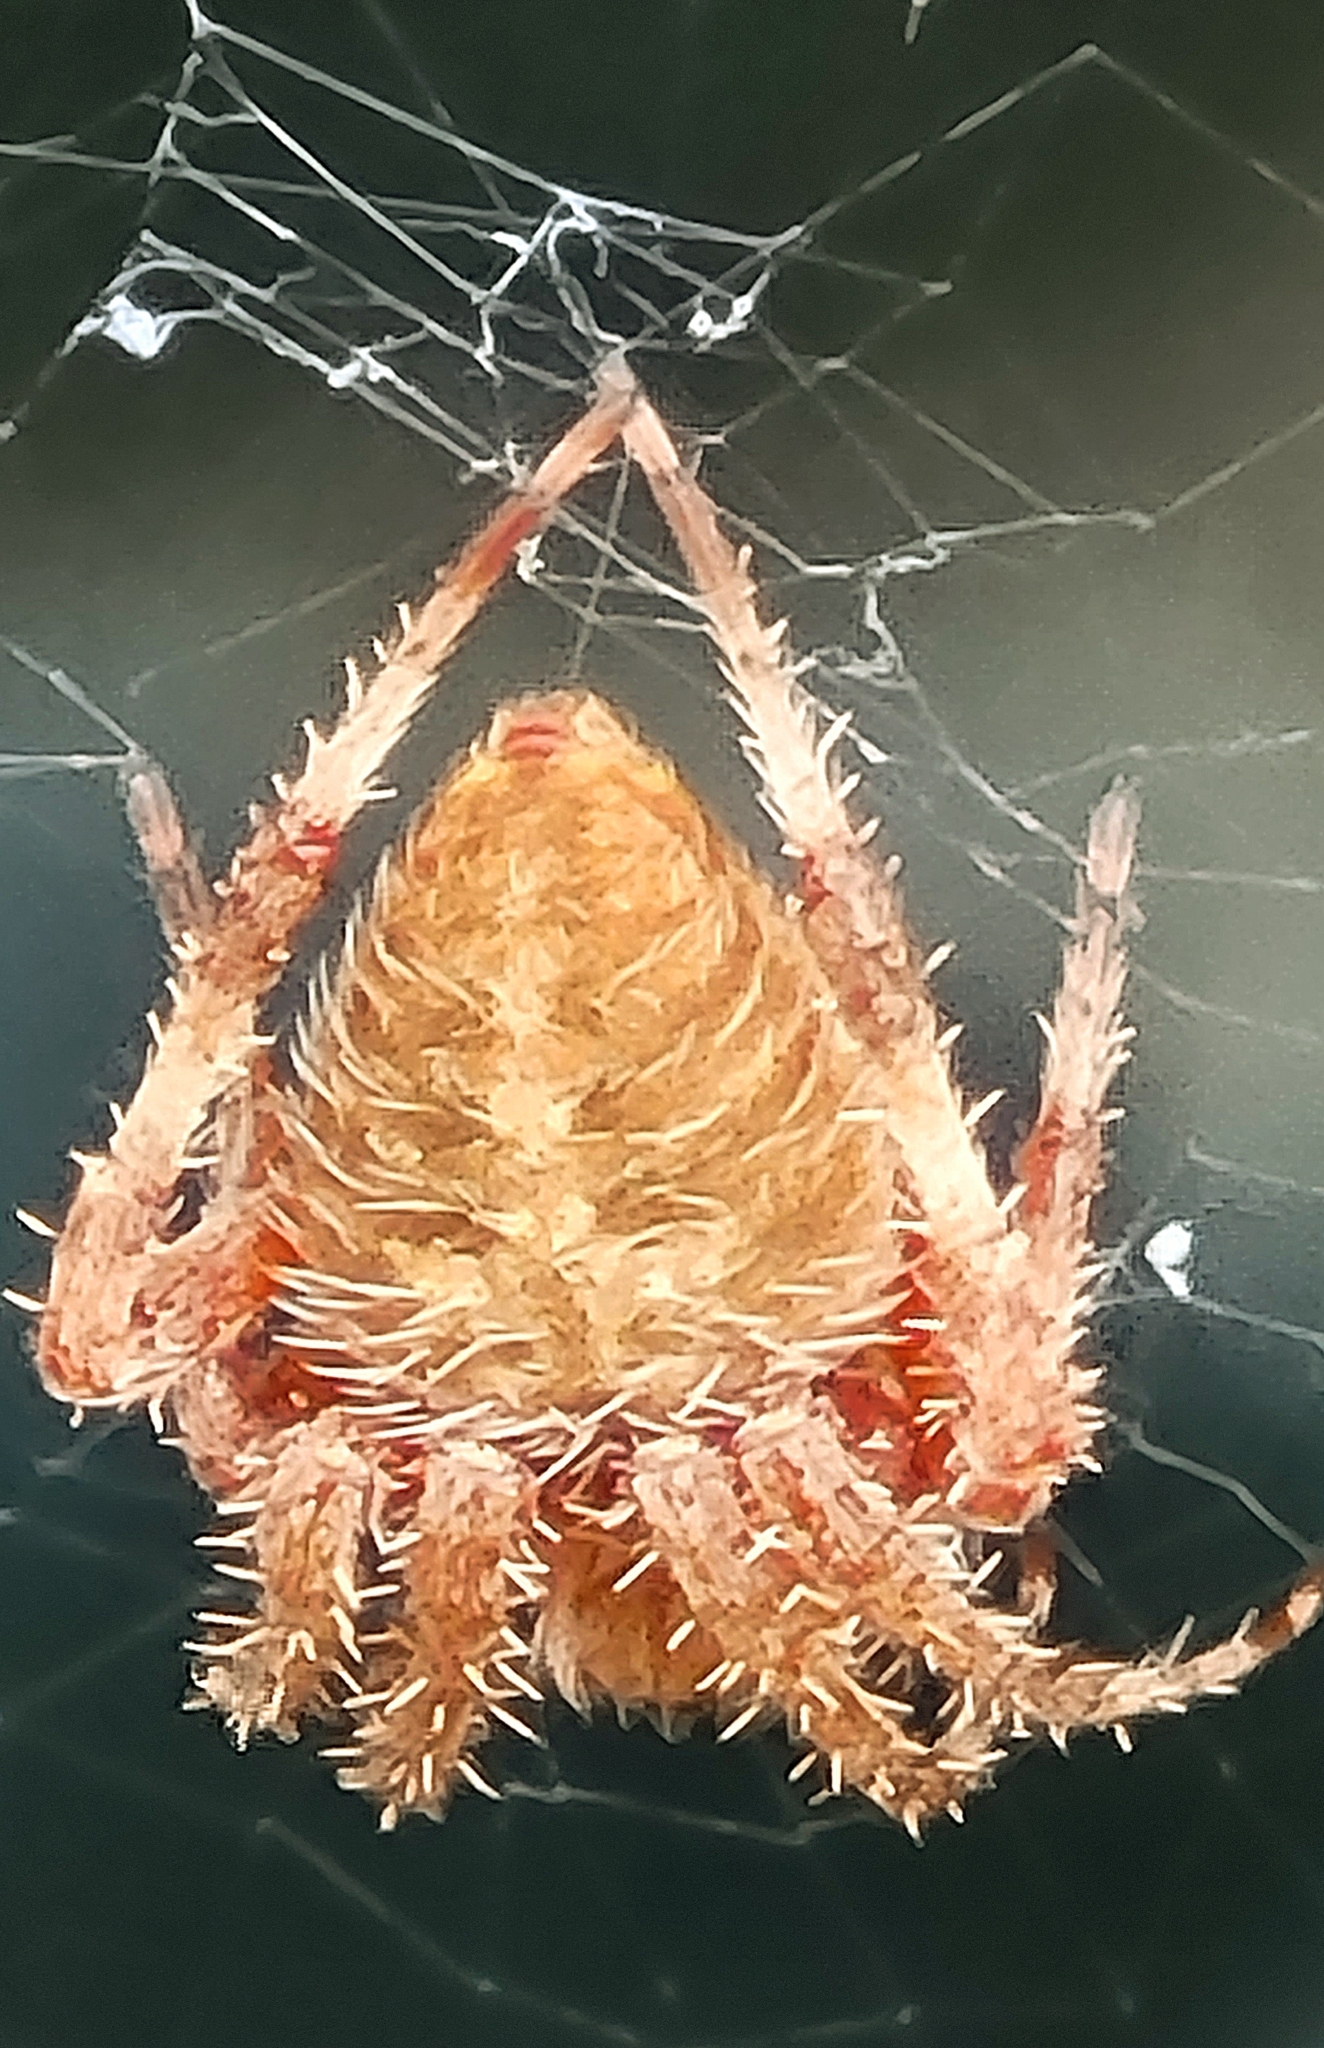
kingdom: Animalia
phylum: Arthropoda
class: Arachnida
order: Araneae
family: Araneidae
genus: Neoscona
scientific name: Neoscona crucifera
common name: Spotted orbweaver
